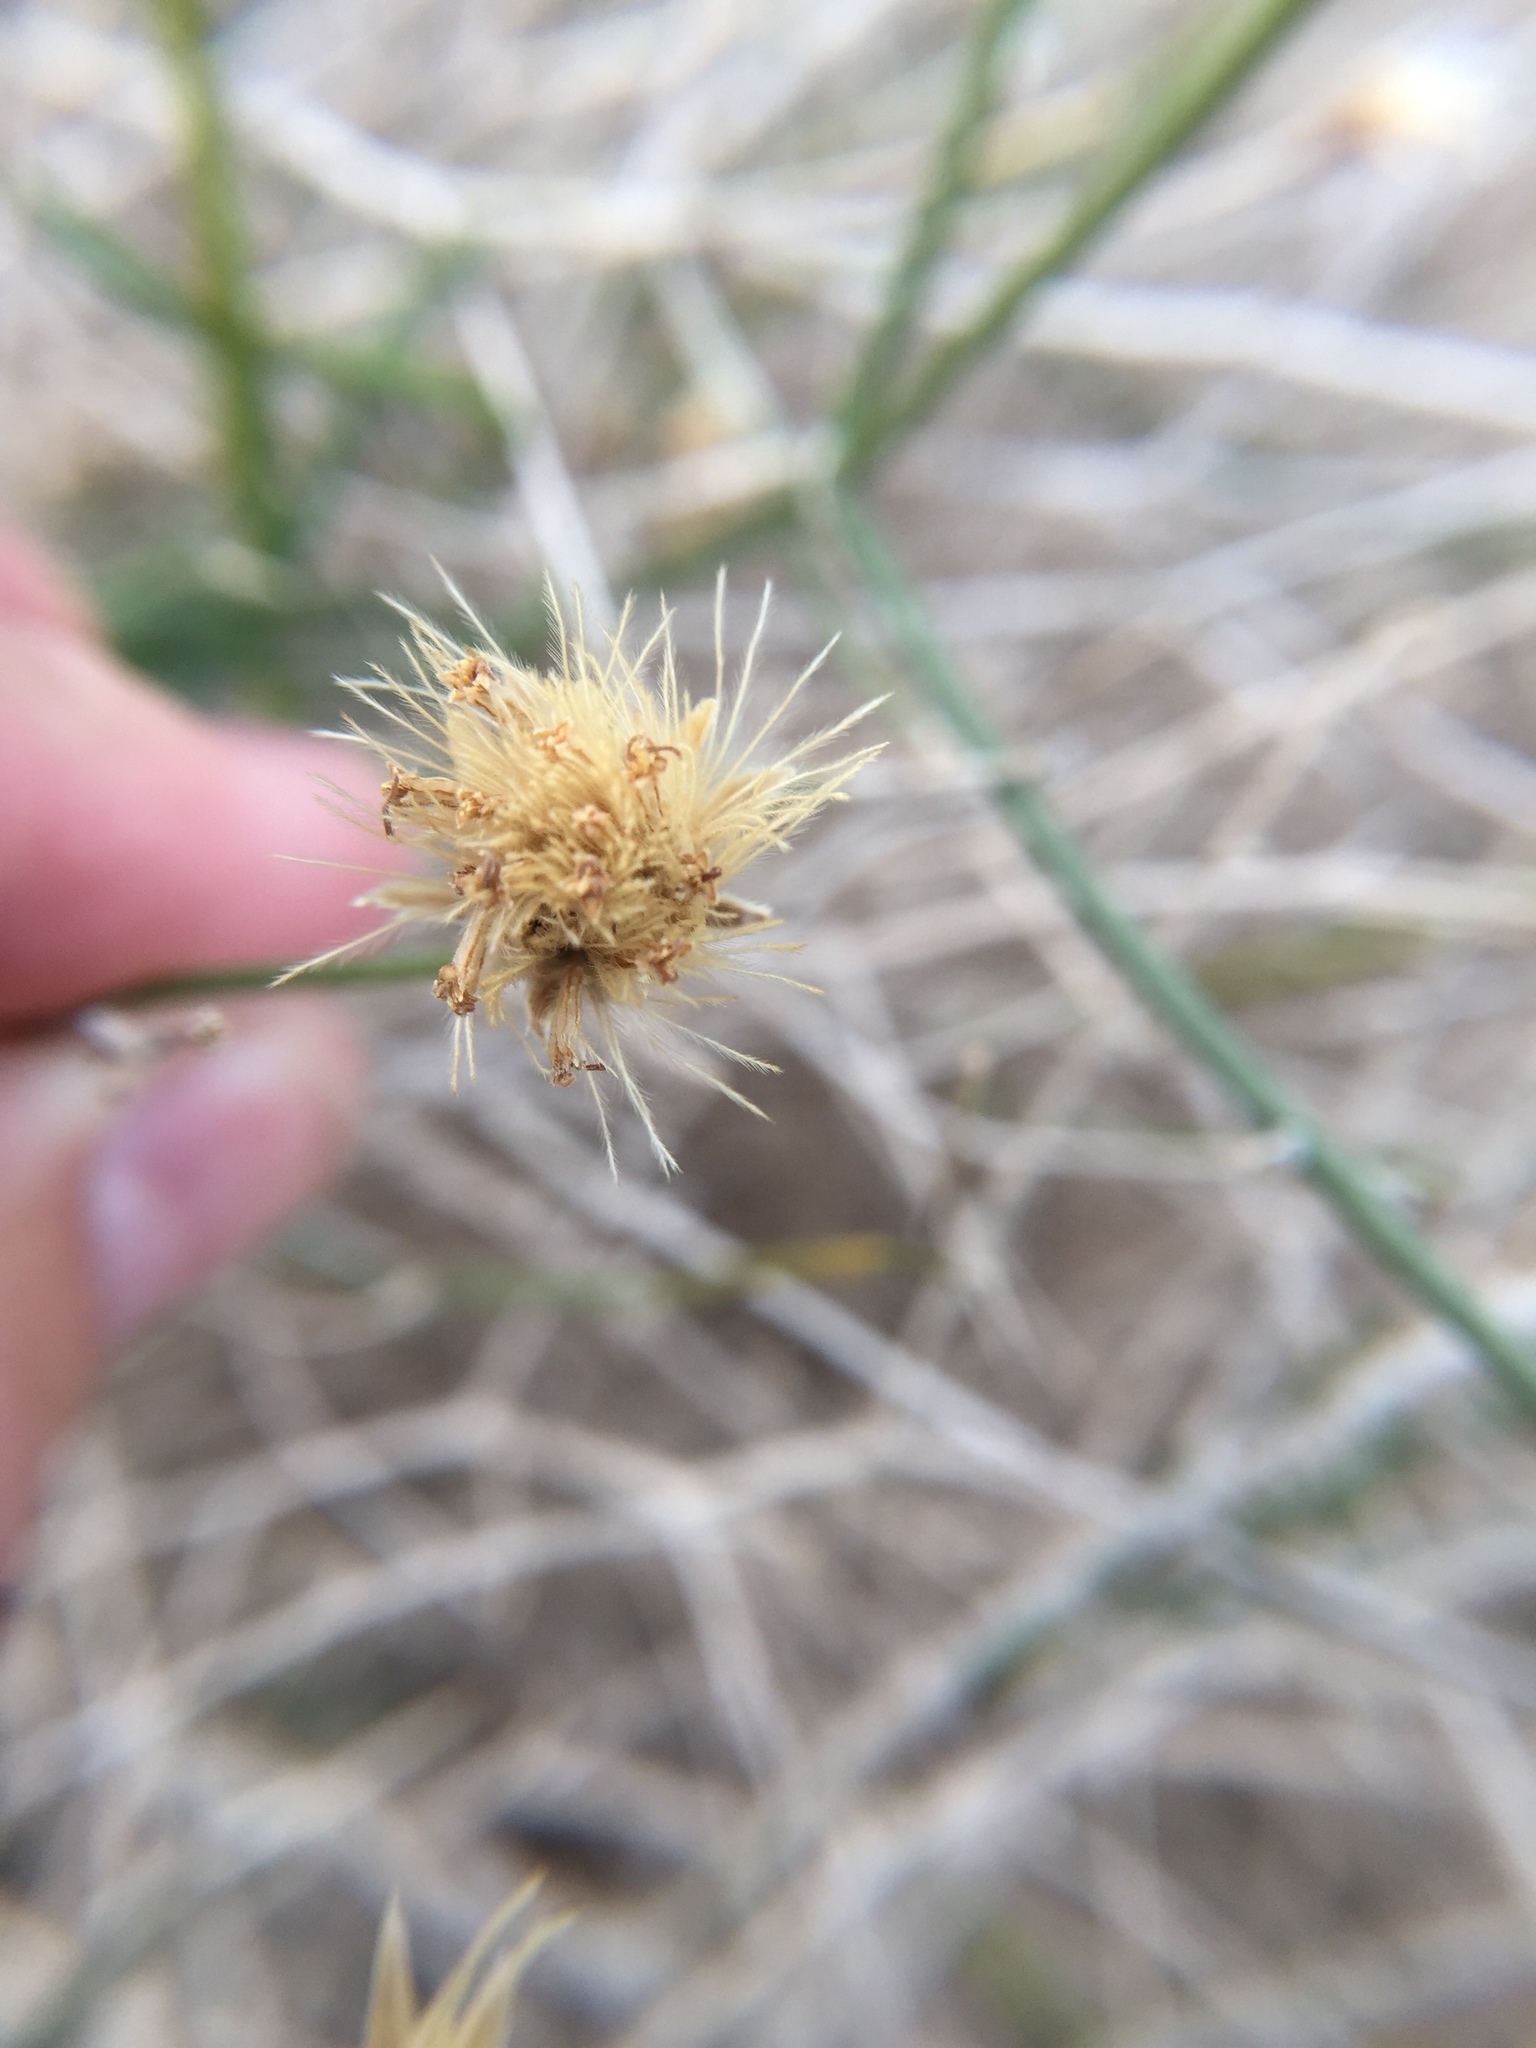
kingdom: Plantae
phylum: Tracheophyta
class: Magnoliopsida
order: Asterales
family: Asteraceae
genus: Bebbia
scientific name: Bebbia juncea
